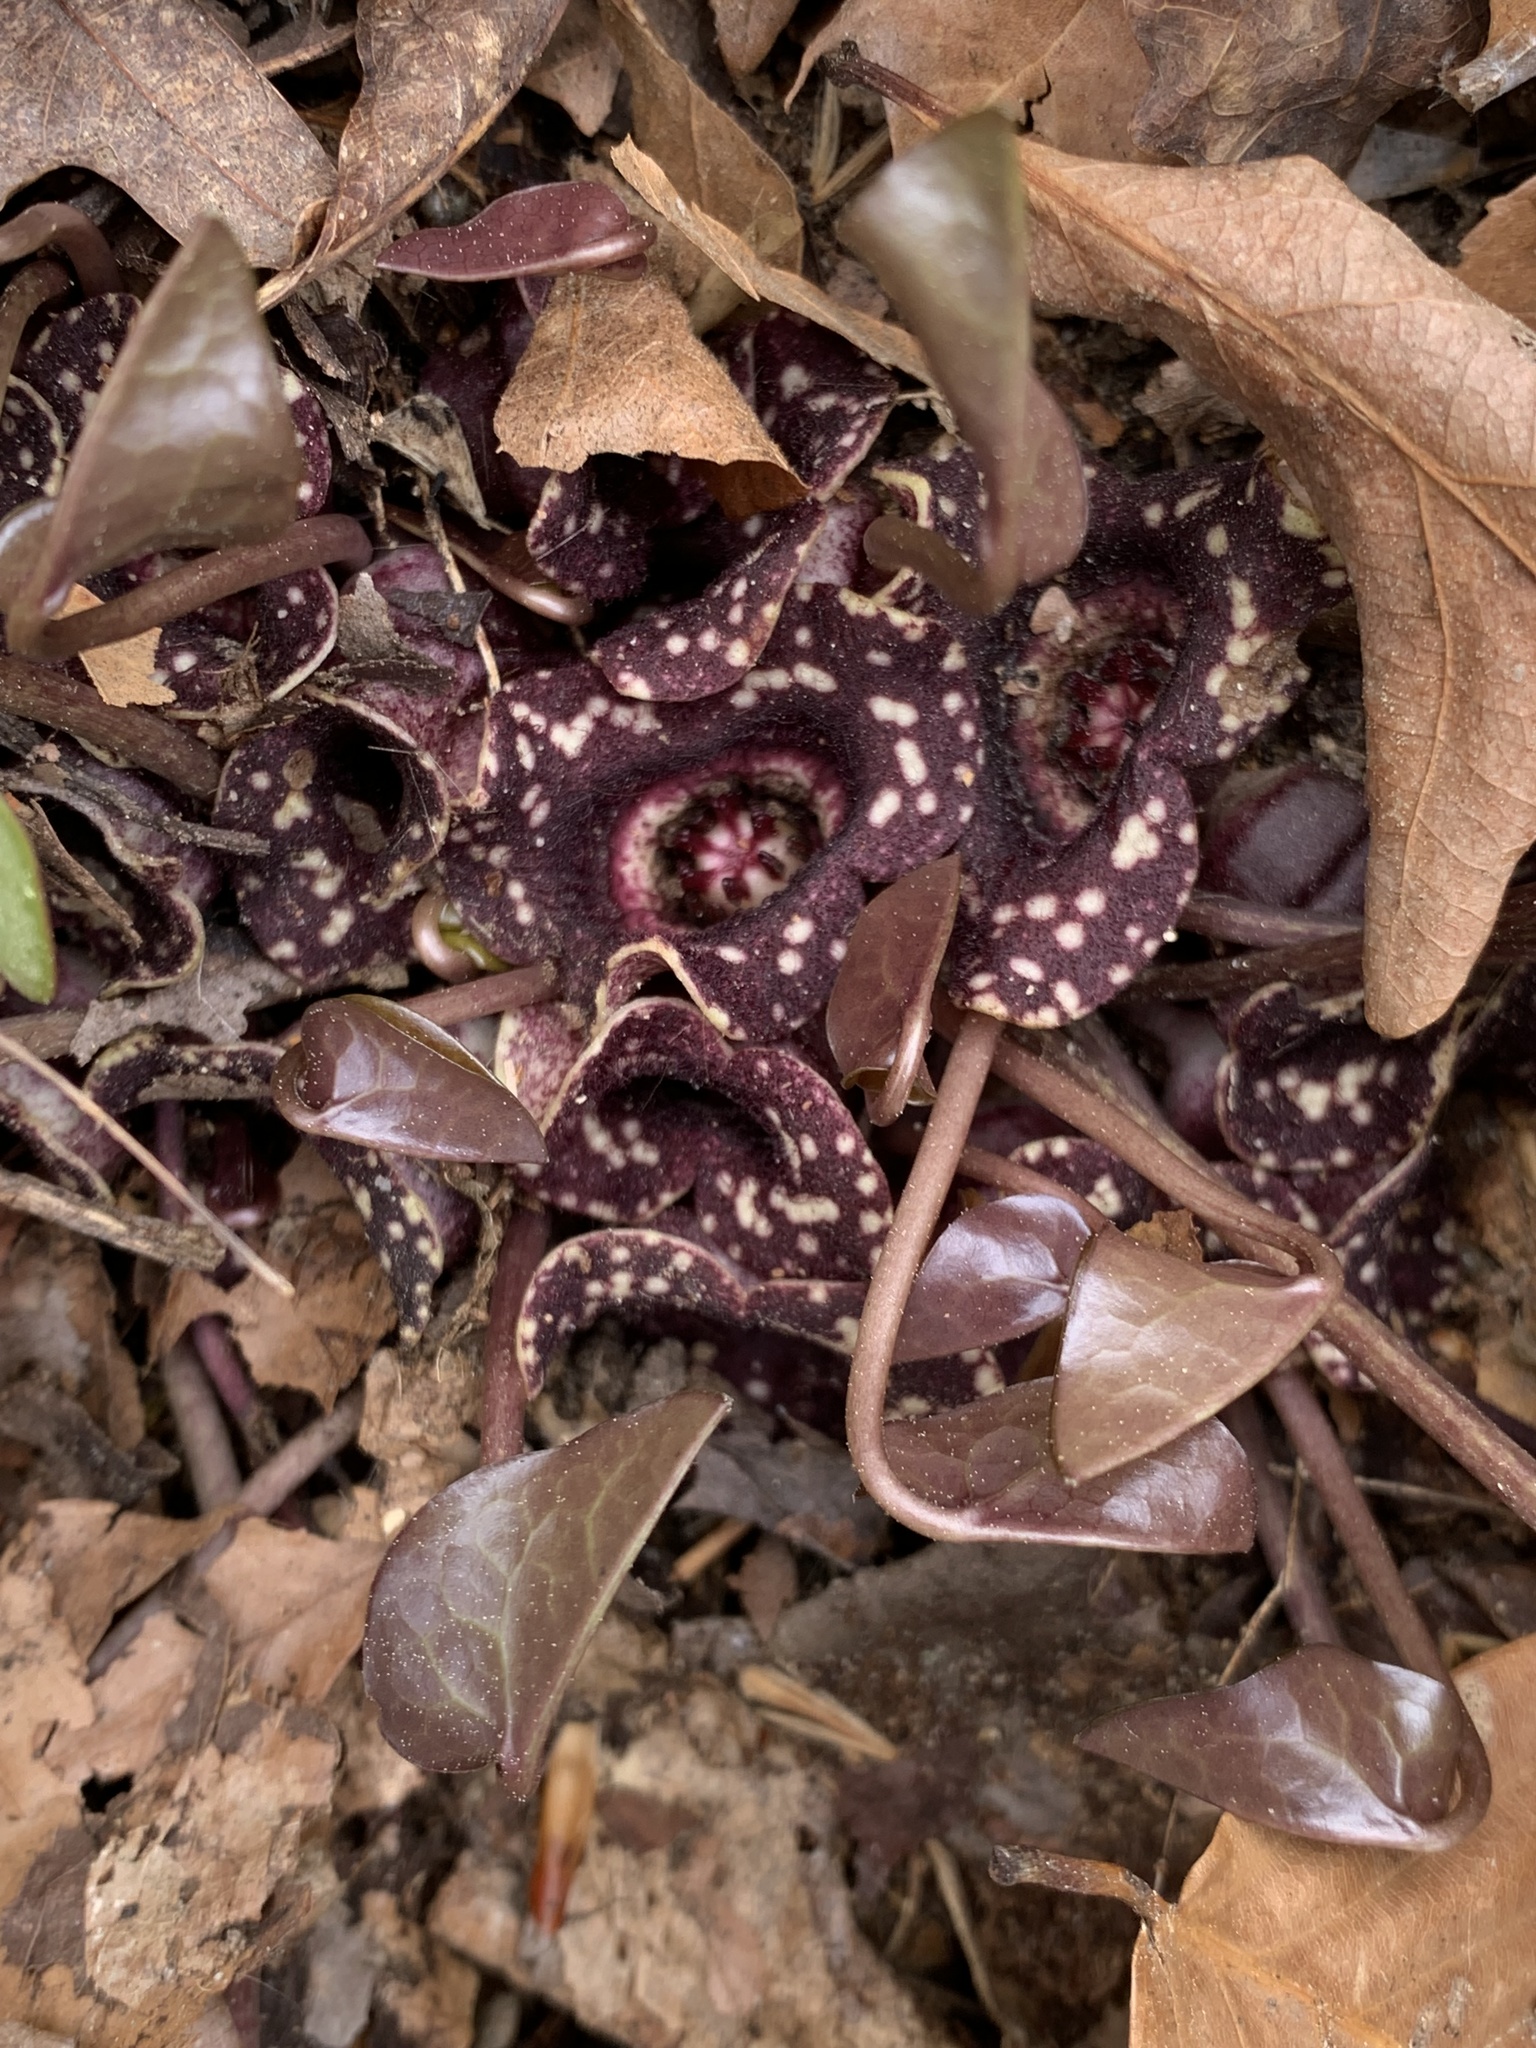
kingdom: Plantae
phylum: Tracheophyta
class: Magnoliopsida
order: Piperales
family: Aristolochiaceae
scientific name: Aristolochiaceae
